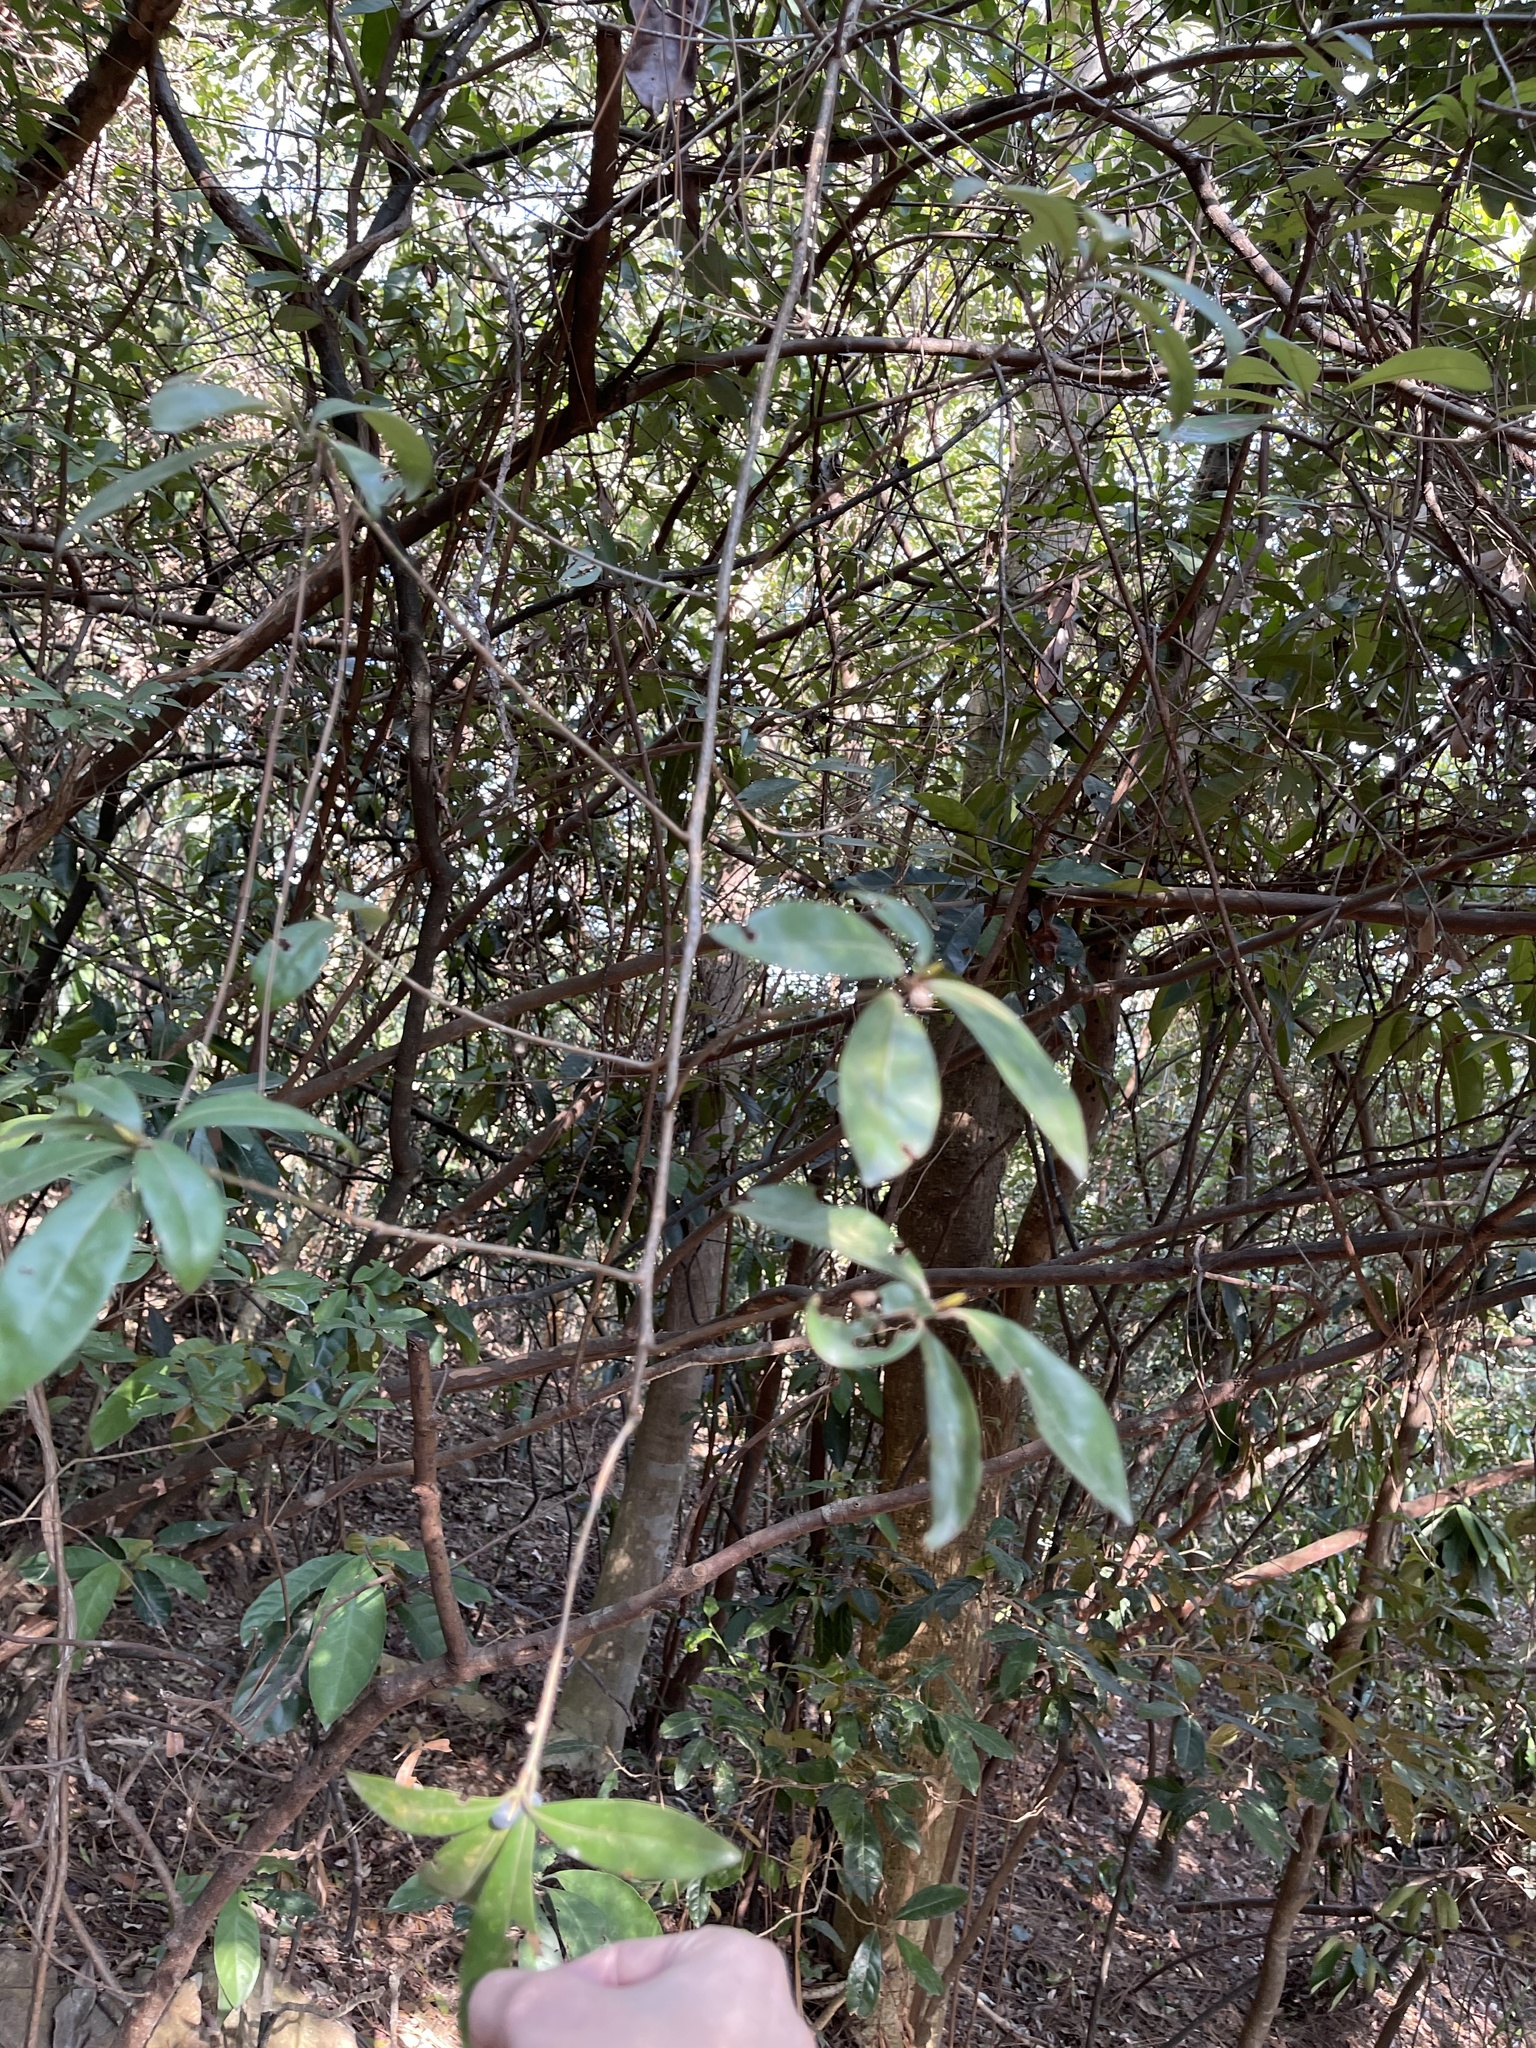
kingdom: Plantae
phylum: Tracheophyta
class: Magnoliopsida
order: Laurales
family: Lauraceae
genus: Litsea
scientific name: Litsea rotundifolia
